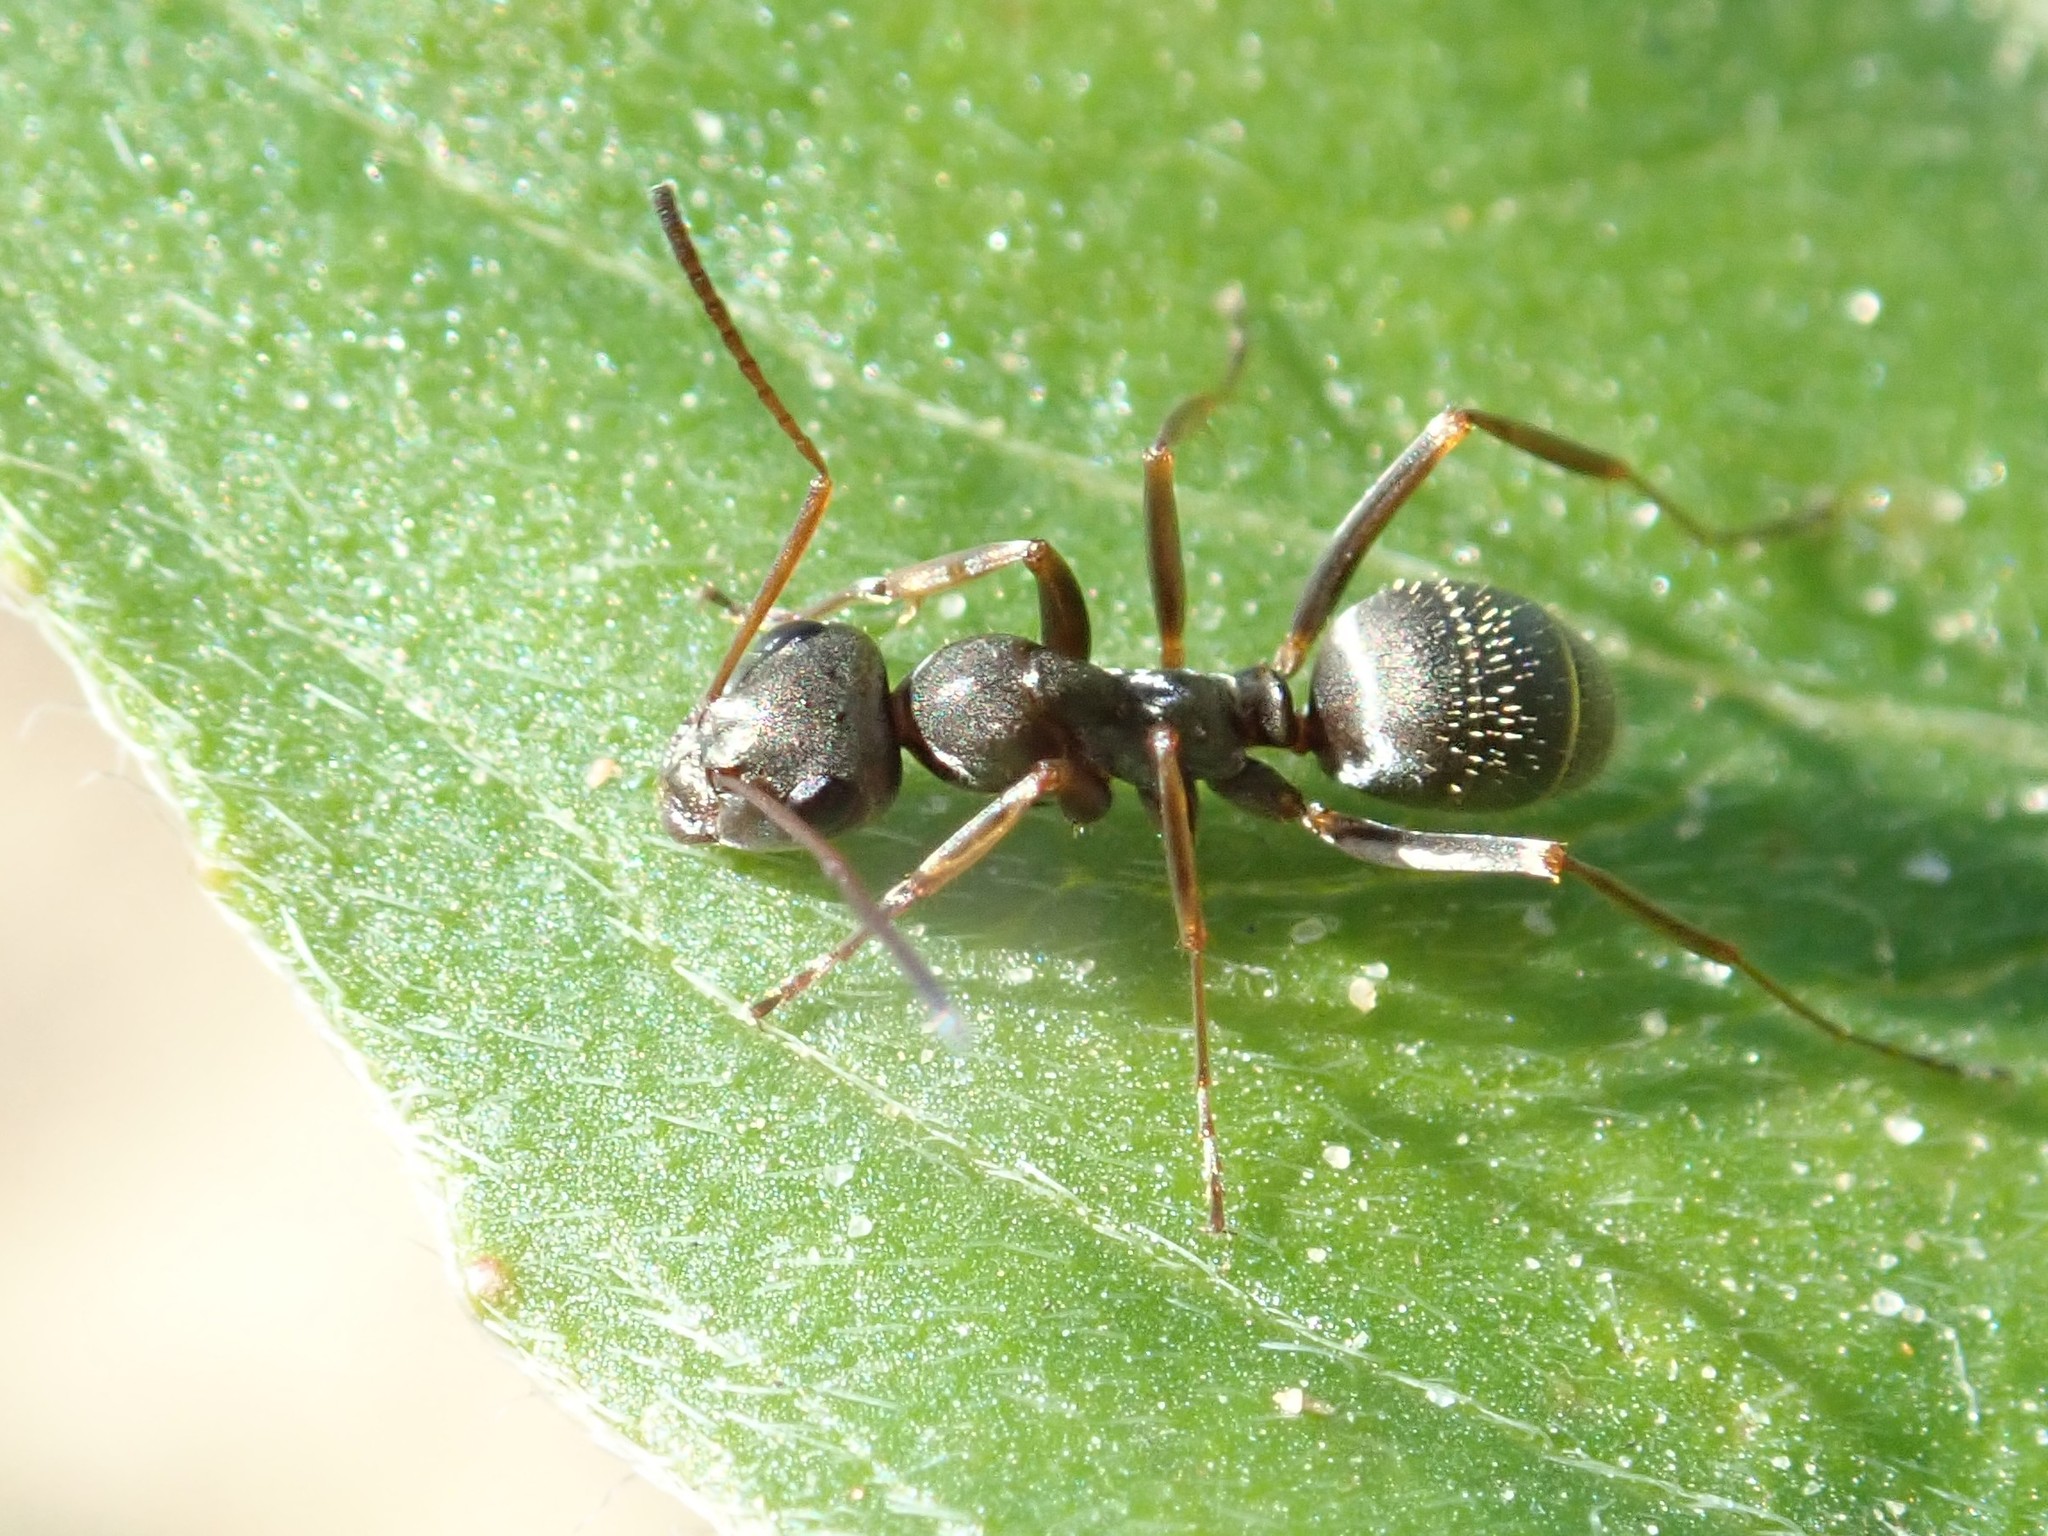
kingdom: Animalia
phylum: Arthropoda
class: Insecta
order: Hymenoptera
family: Formicidae
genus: Formica
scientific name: Formica cinerea
